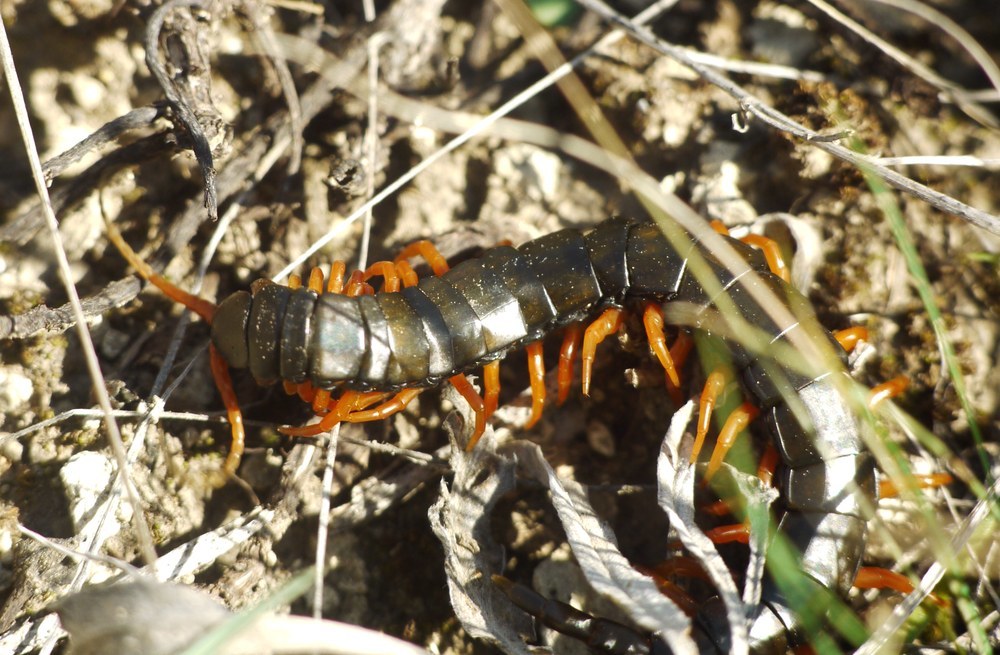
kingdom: Animalia
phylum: Arthropoda
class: Chilopoda
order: Scolopendromorpha
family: Scolopendridae
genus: Scolopendra
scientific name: Scolopendra cingulata
